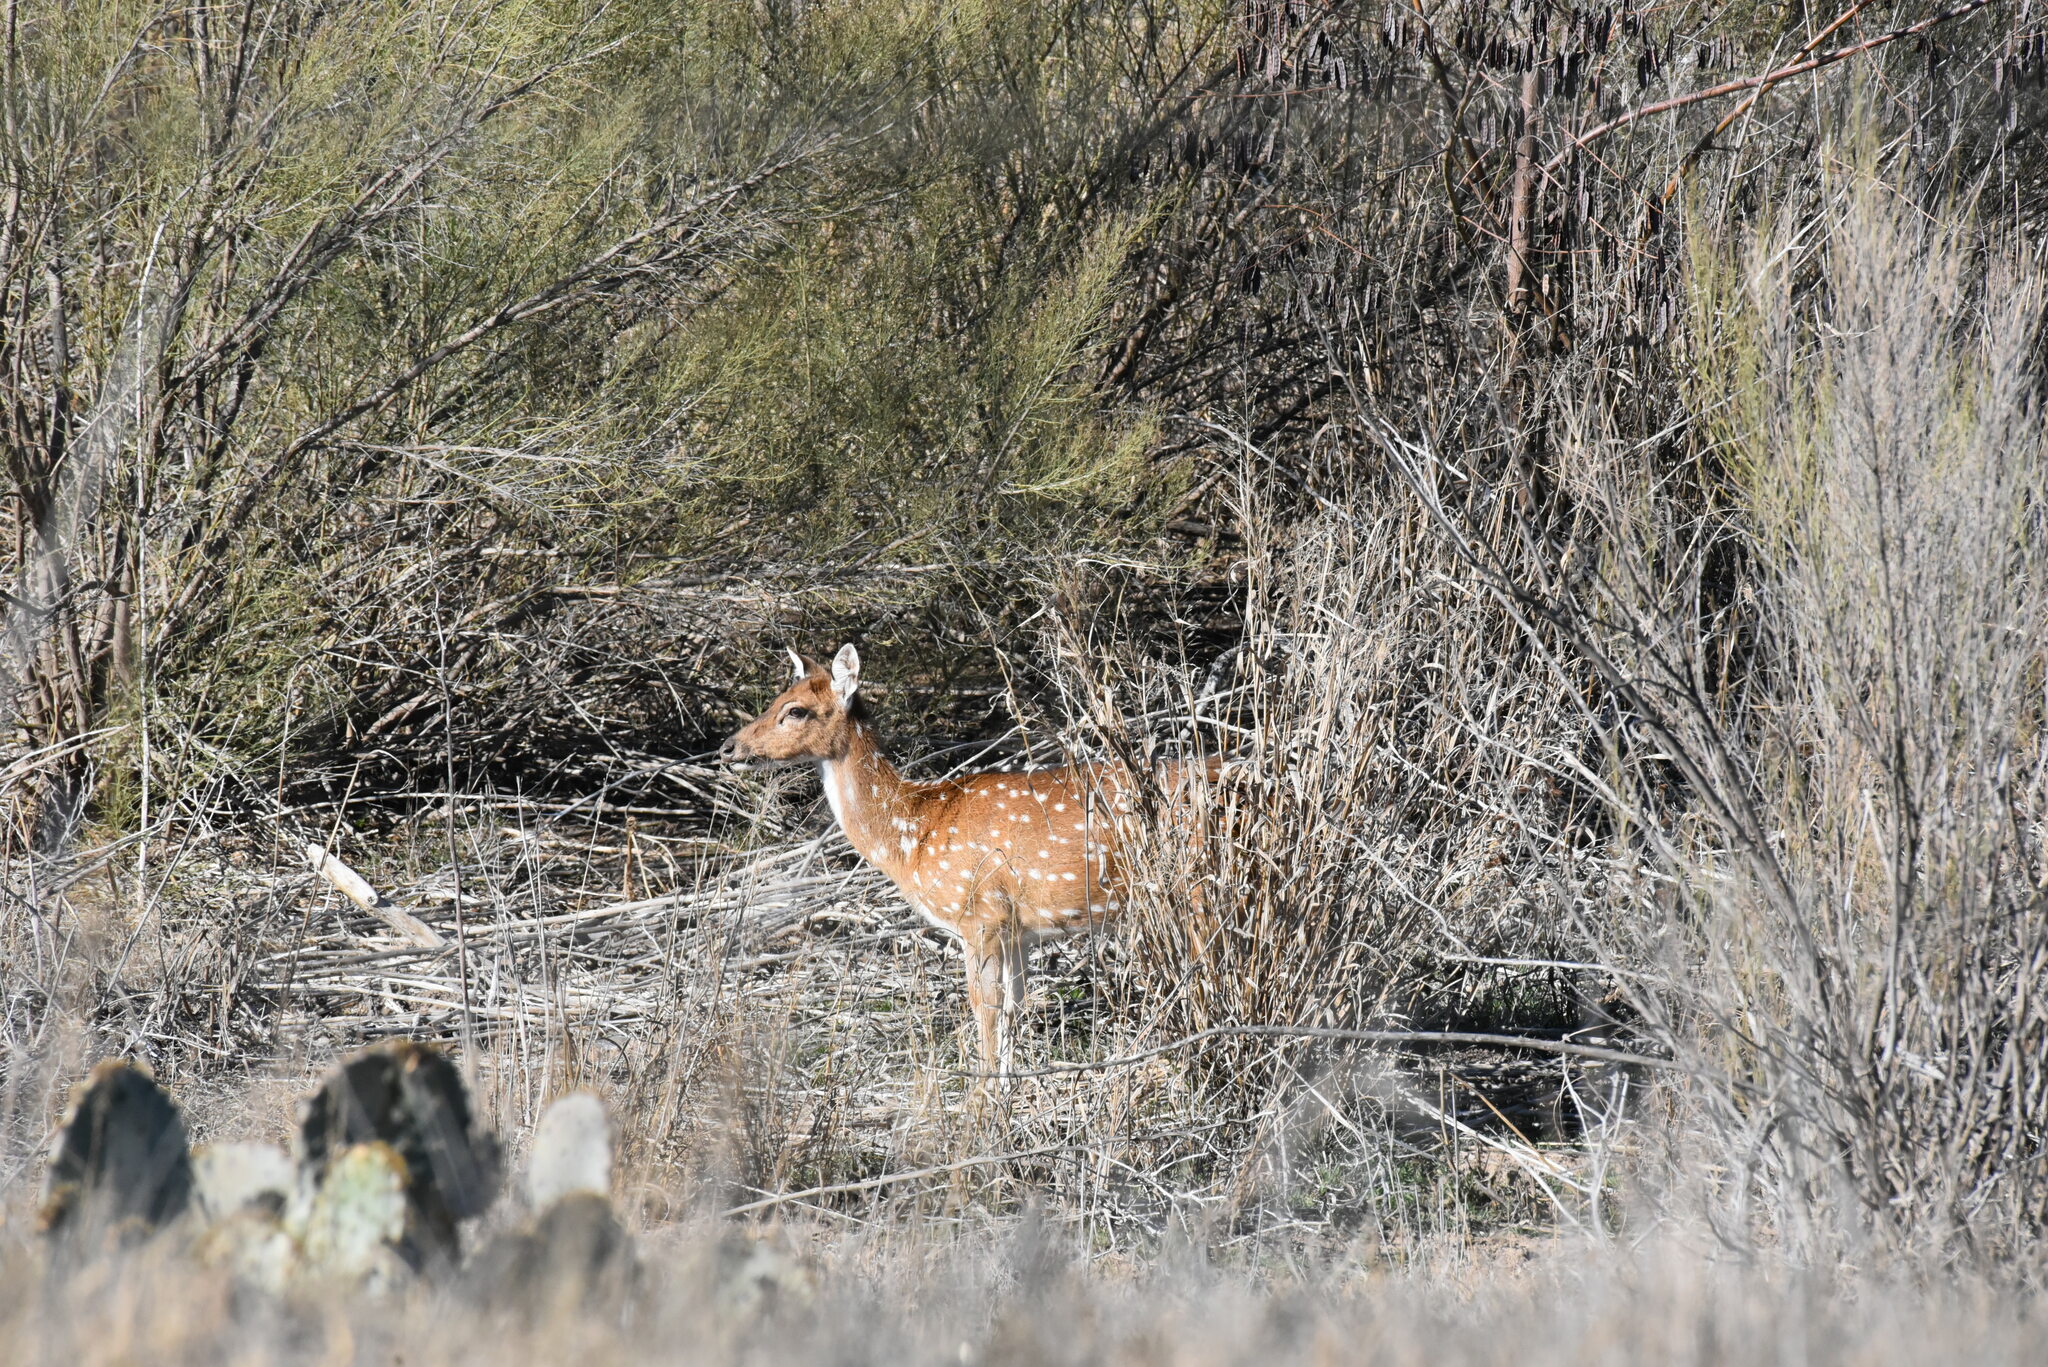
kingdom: Animalia
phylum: Chordata
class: Mammalia
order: Artiodactyla
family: Cervidae
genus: Axis
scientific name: Axis axis
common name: Chital
